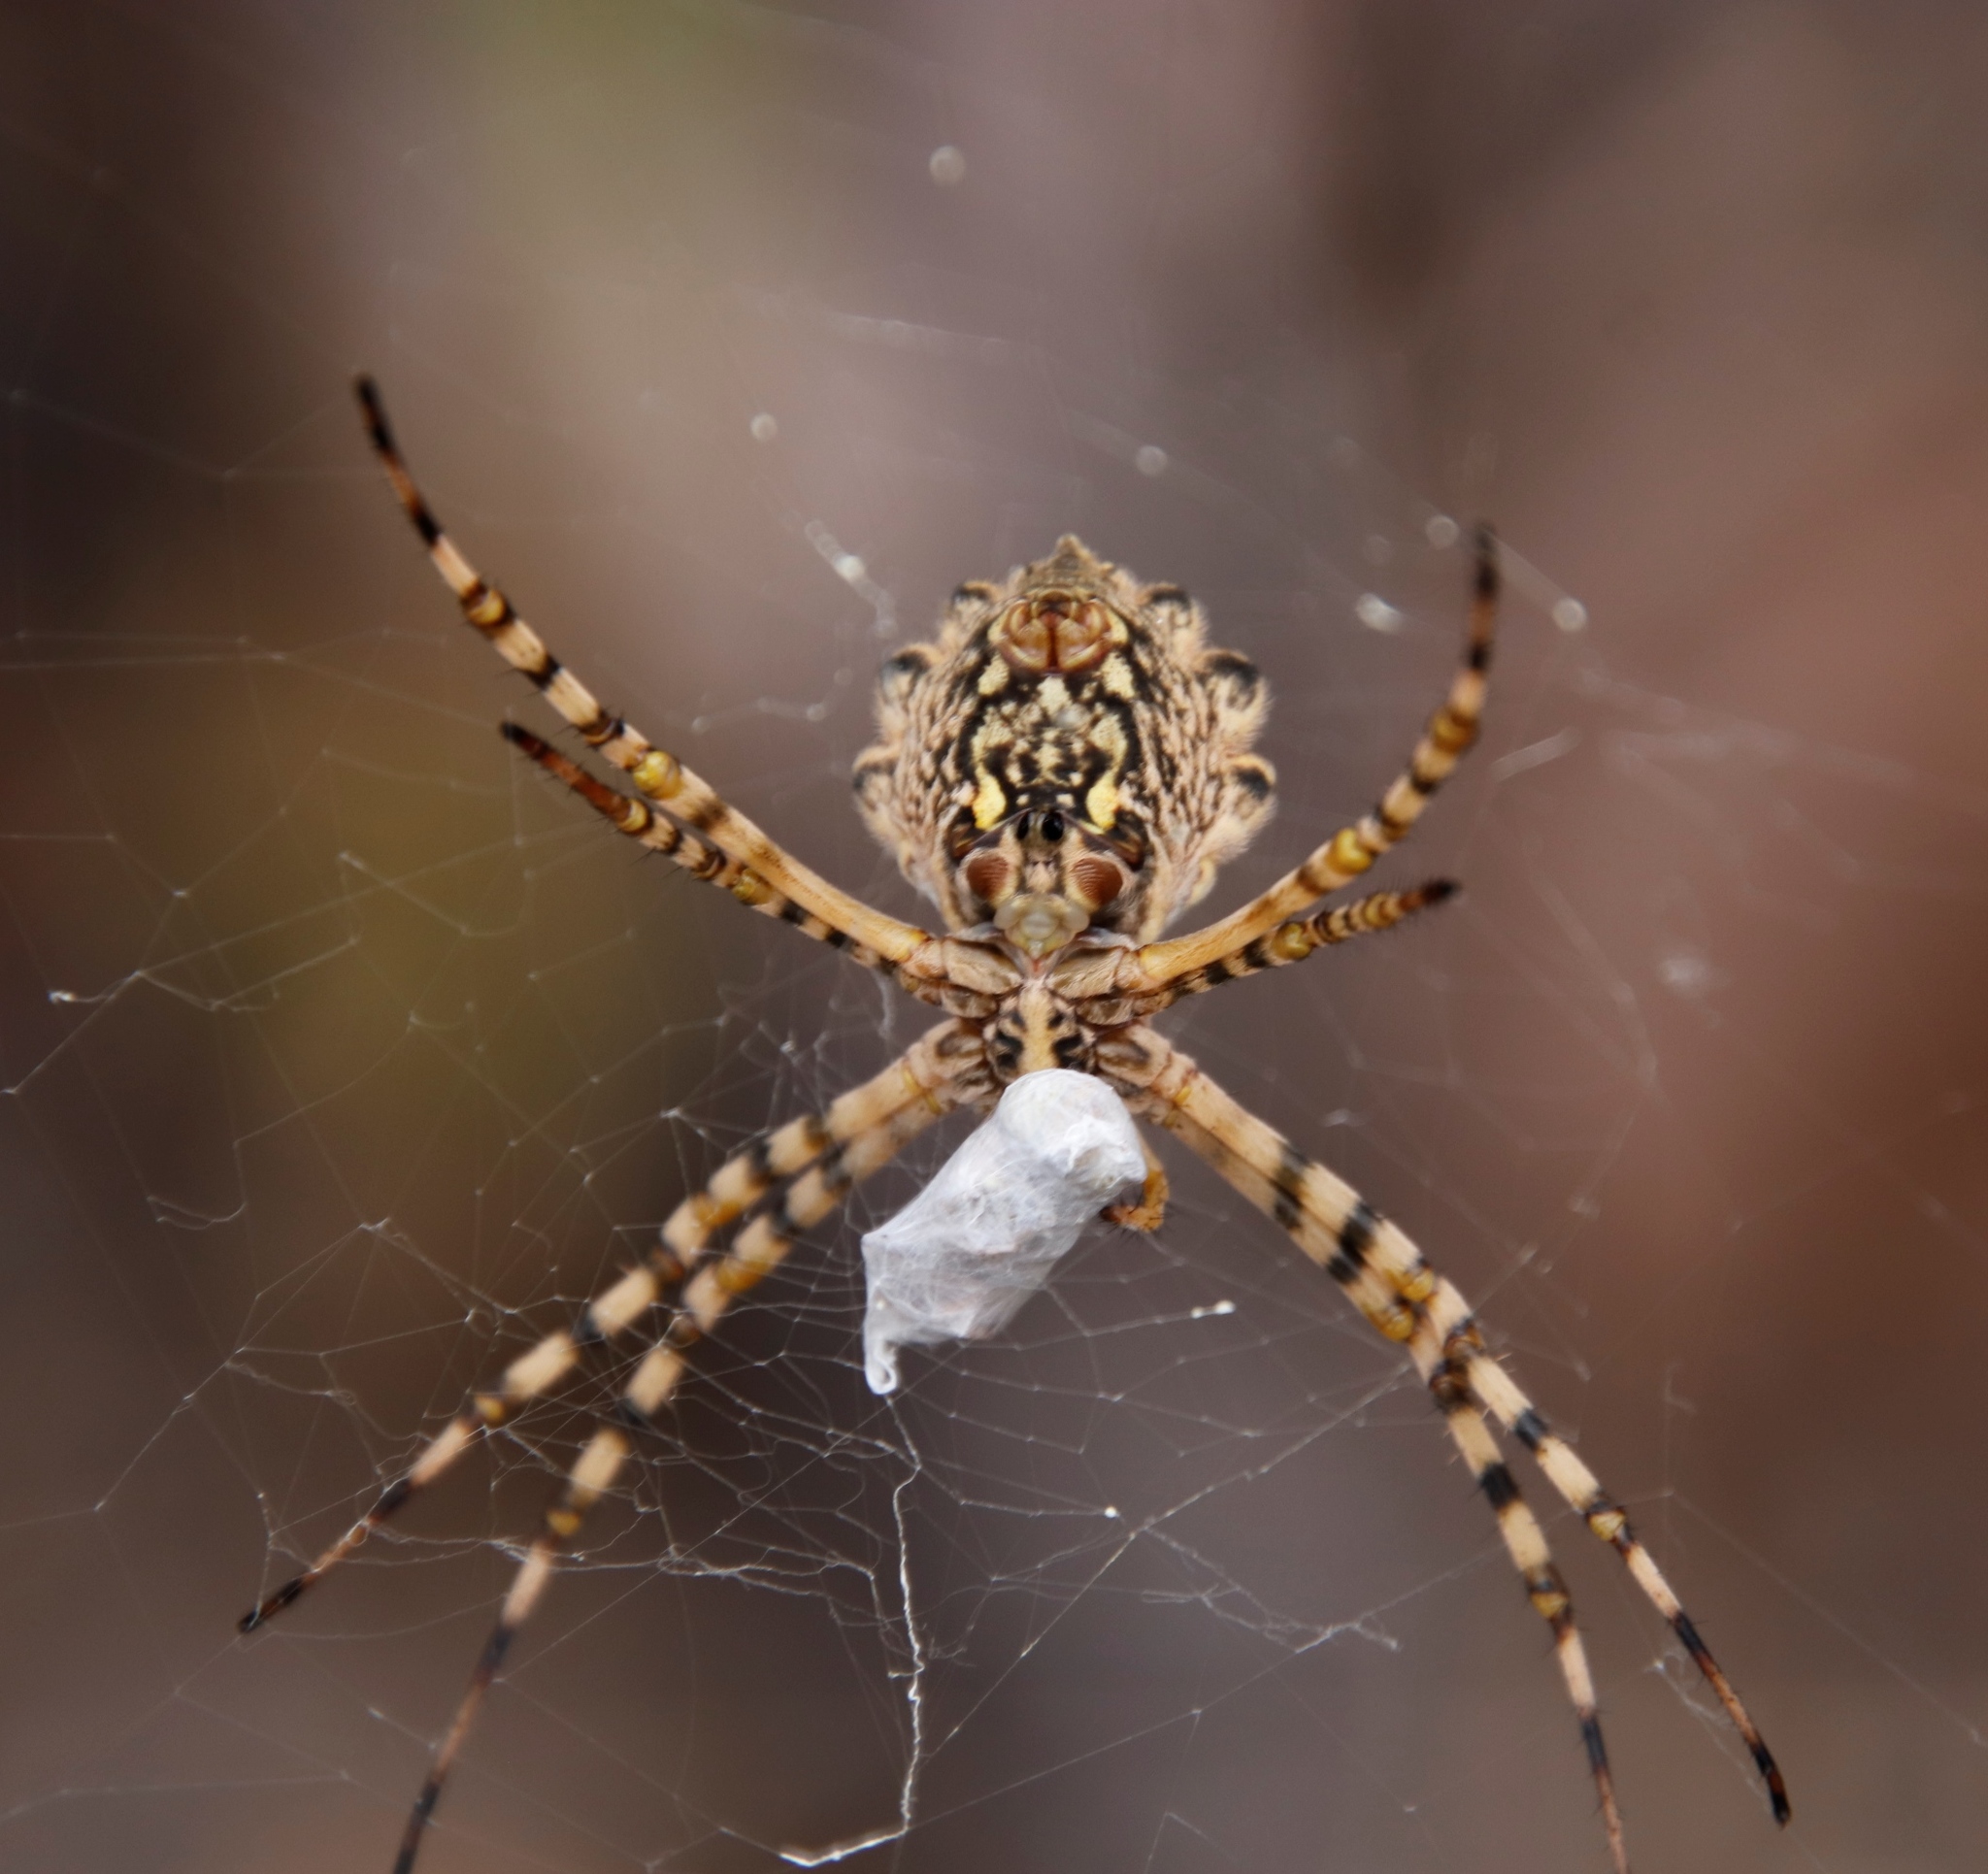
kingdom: Animalia
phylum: Arthropoda
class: Arachnida
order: Araneae
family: Araneidae
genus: Argiope
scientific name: Argiope australis
